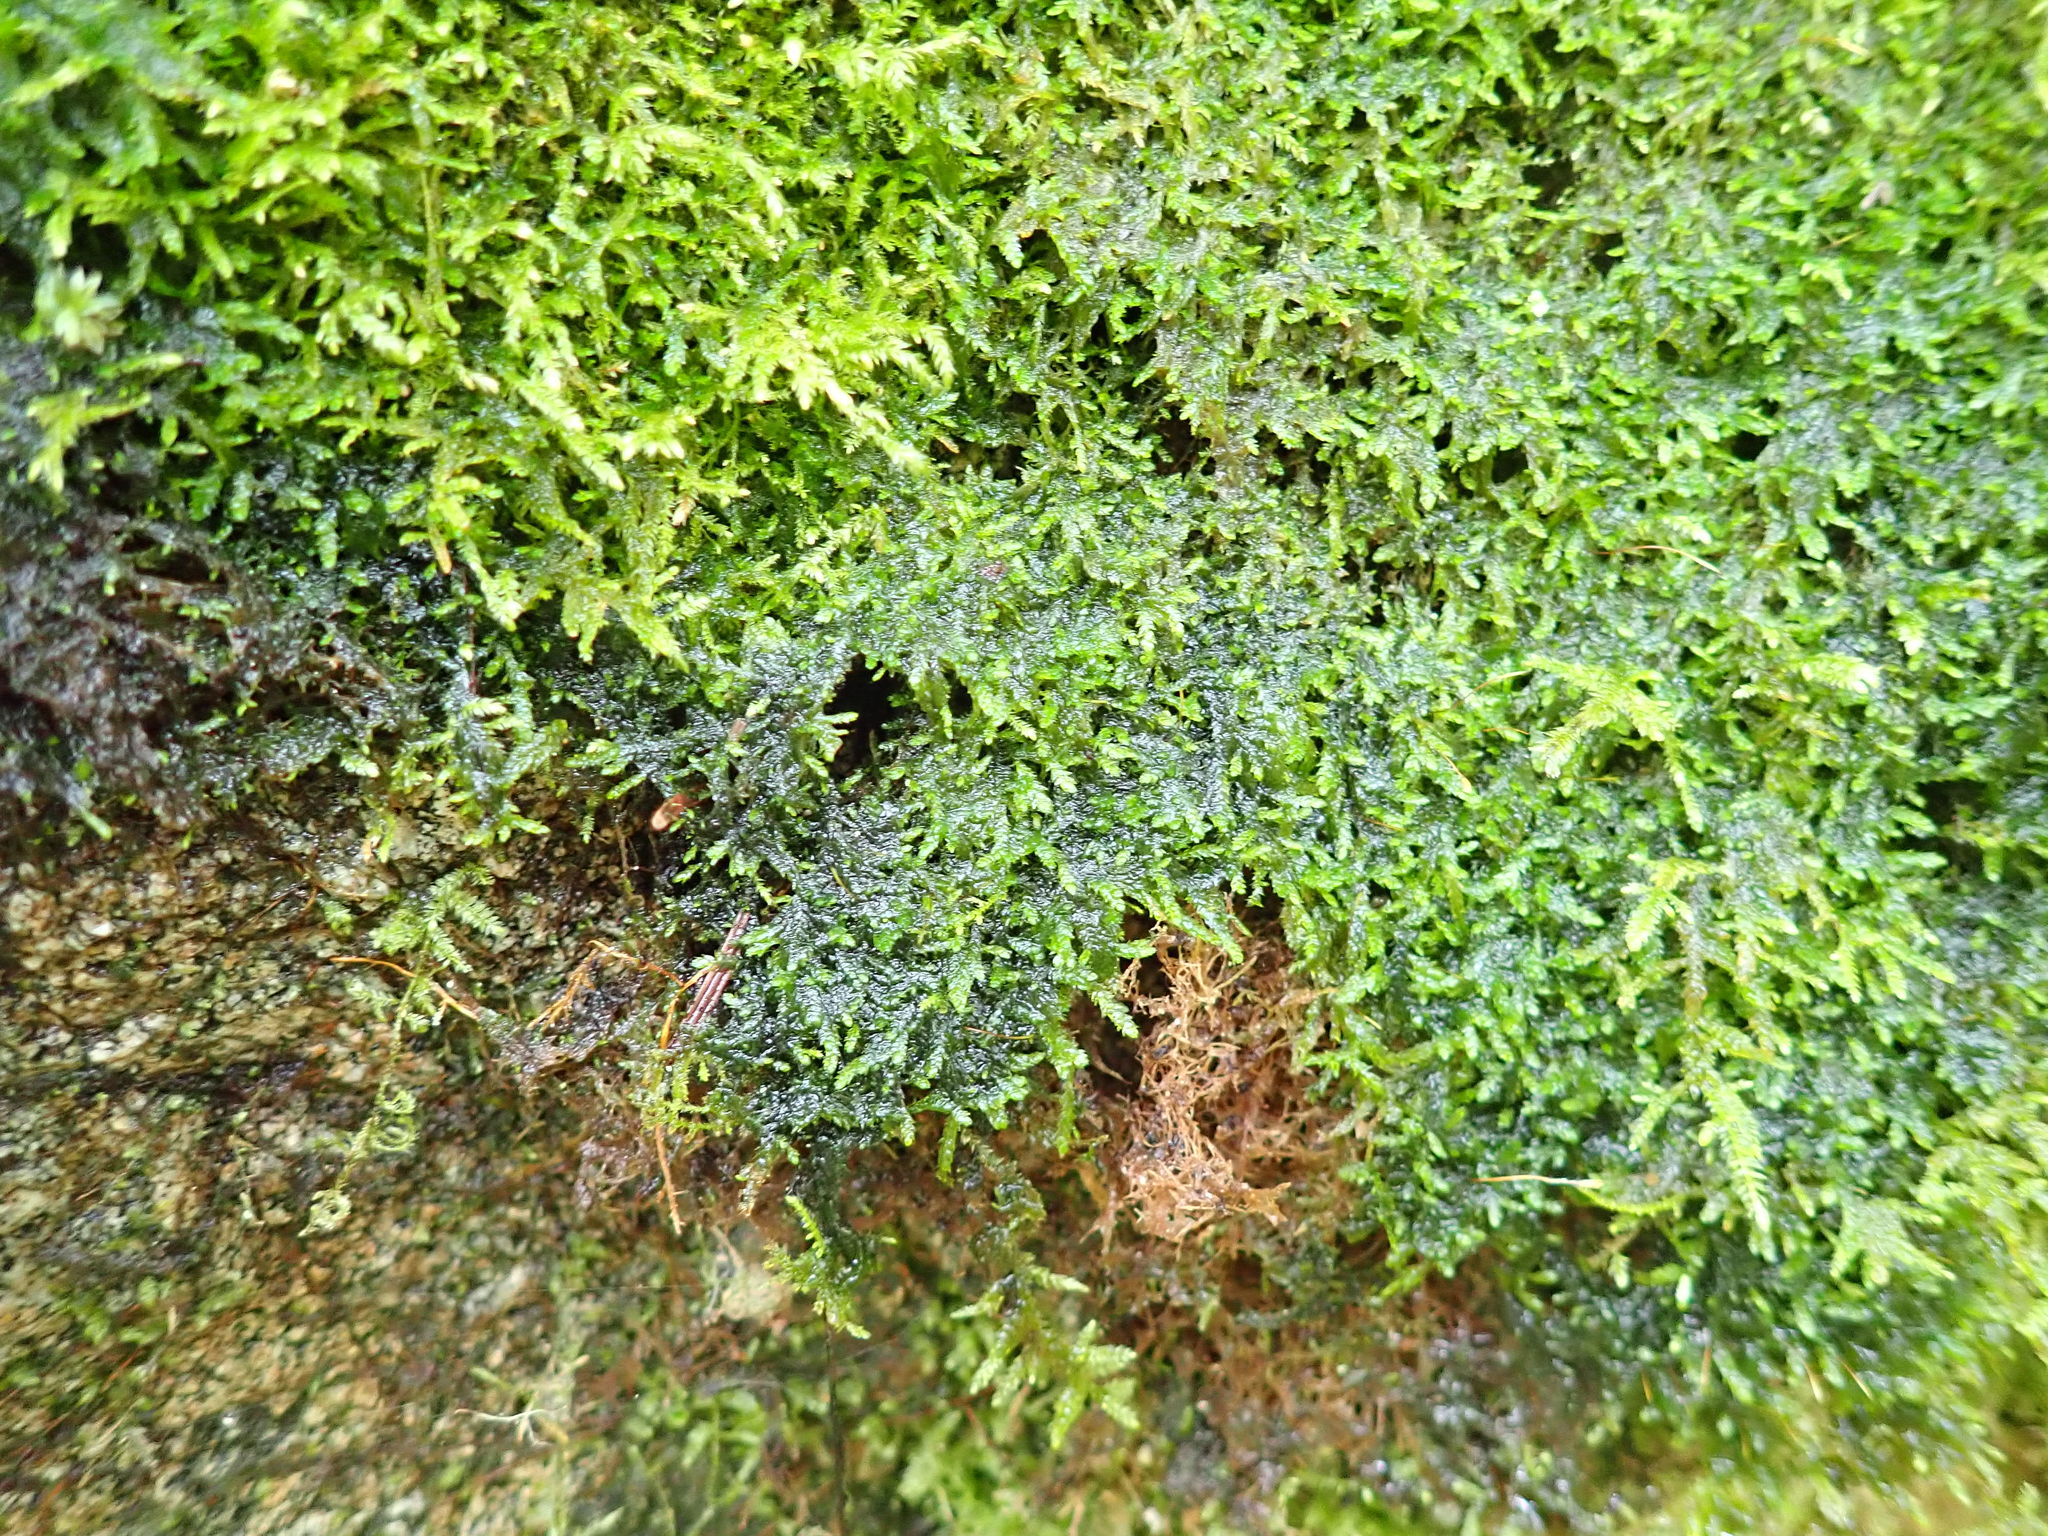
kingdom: Bacteria
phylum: Cyanobacteria
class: Cyanobacteriia
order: Thermosynechococcales
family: Thermosynechococcaceae
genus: Cyanothece
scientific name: Cyanothece aeruginosa
